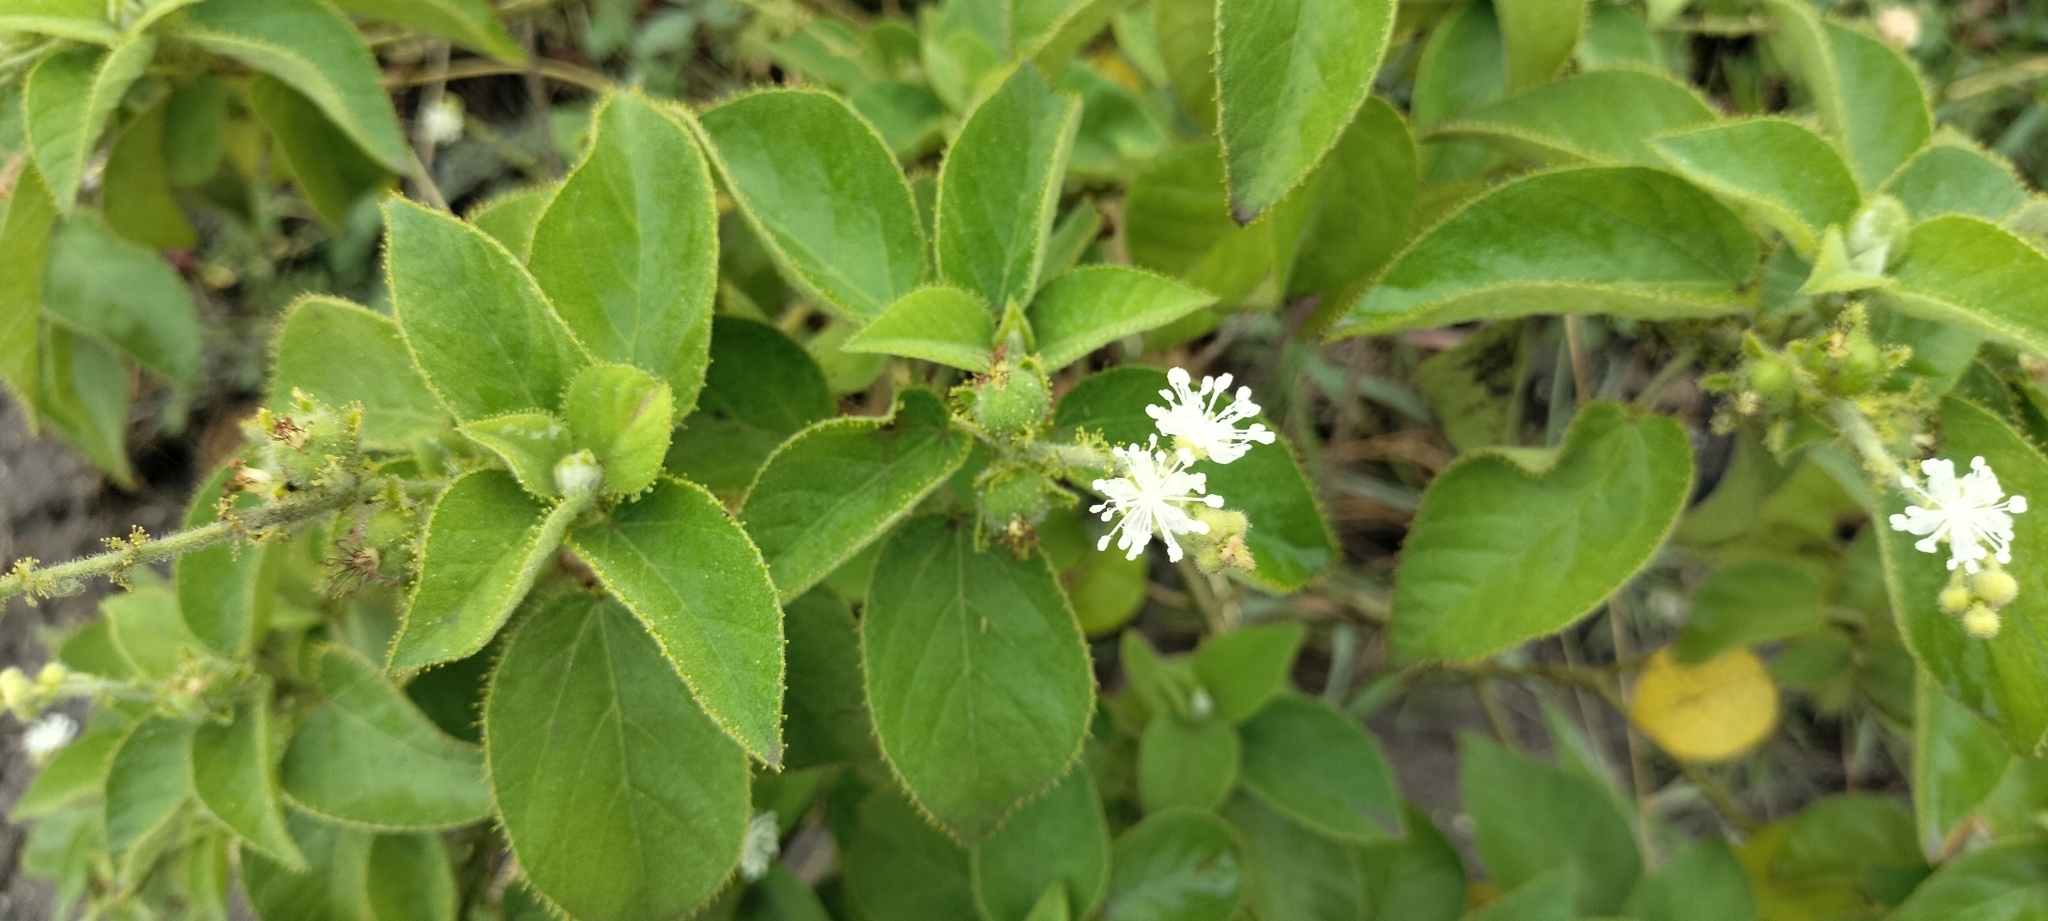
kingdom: Plantae
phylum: Tracheophyta
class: Magnoliopsida
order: Malpighiales
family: Euphorbiaceae
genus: Croton
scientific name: Croton ciliatoglandulifer
